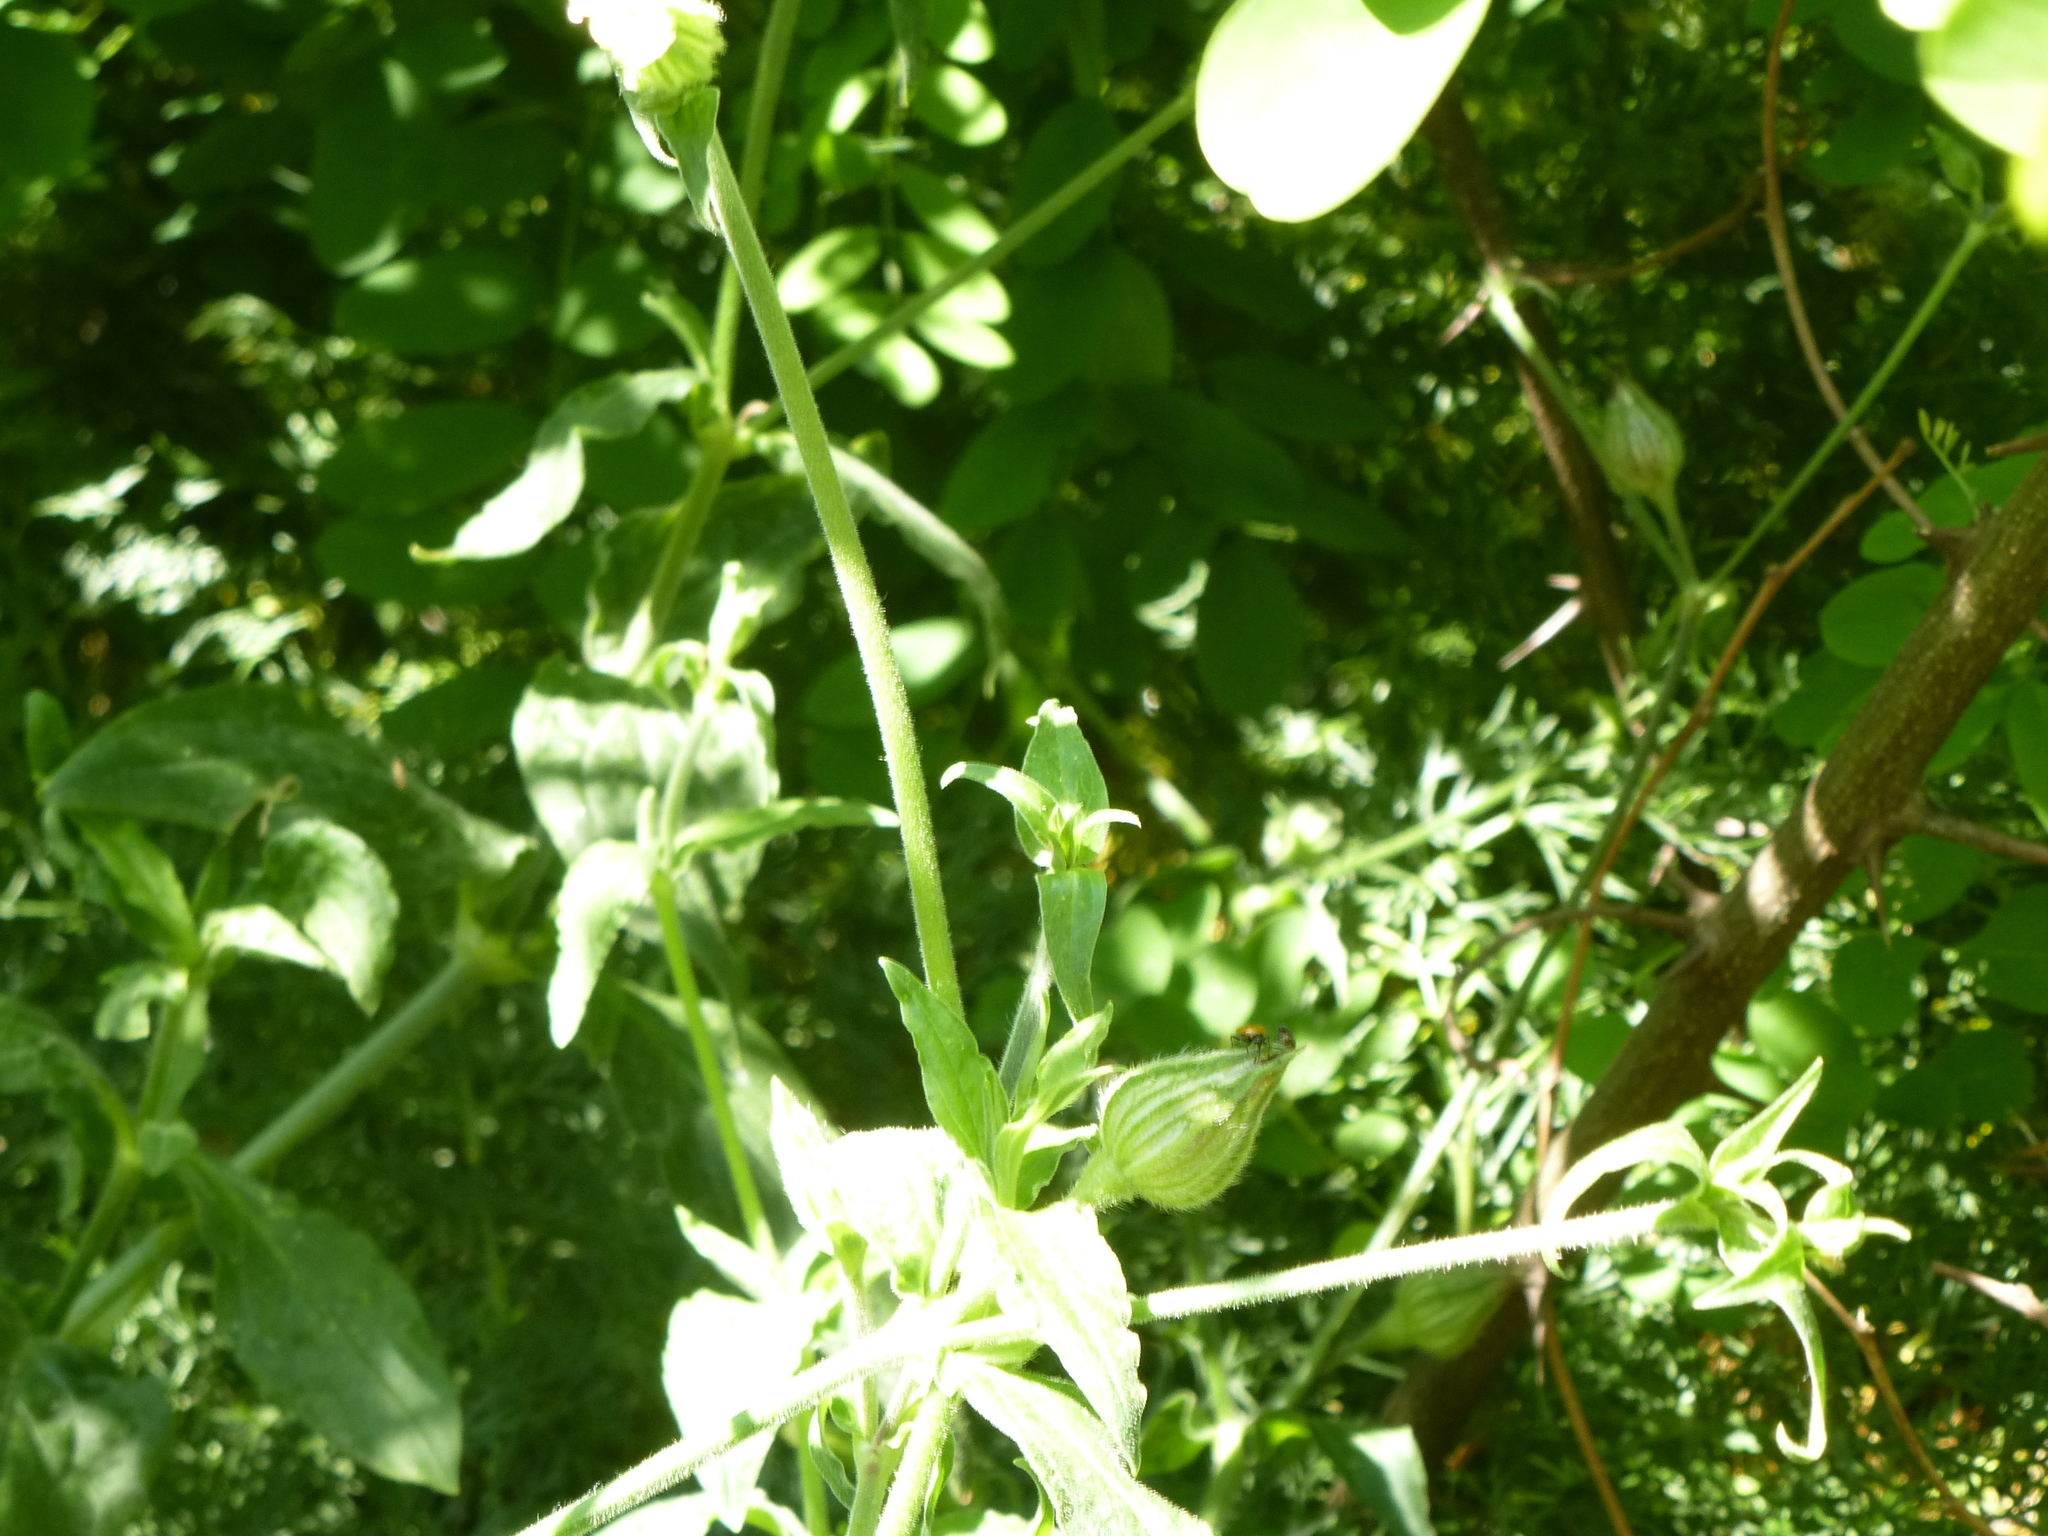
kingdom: Plantae
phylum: Tracheophyta
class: Magnoliopsida
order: Caryophyllales
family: Caryophyllaceae
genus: Silene
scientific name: Silene latifolia
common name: White campion
